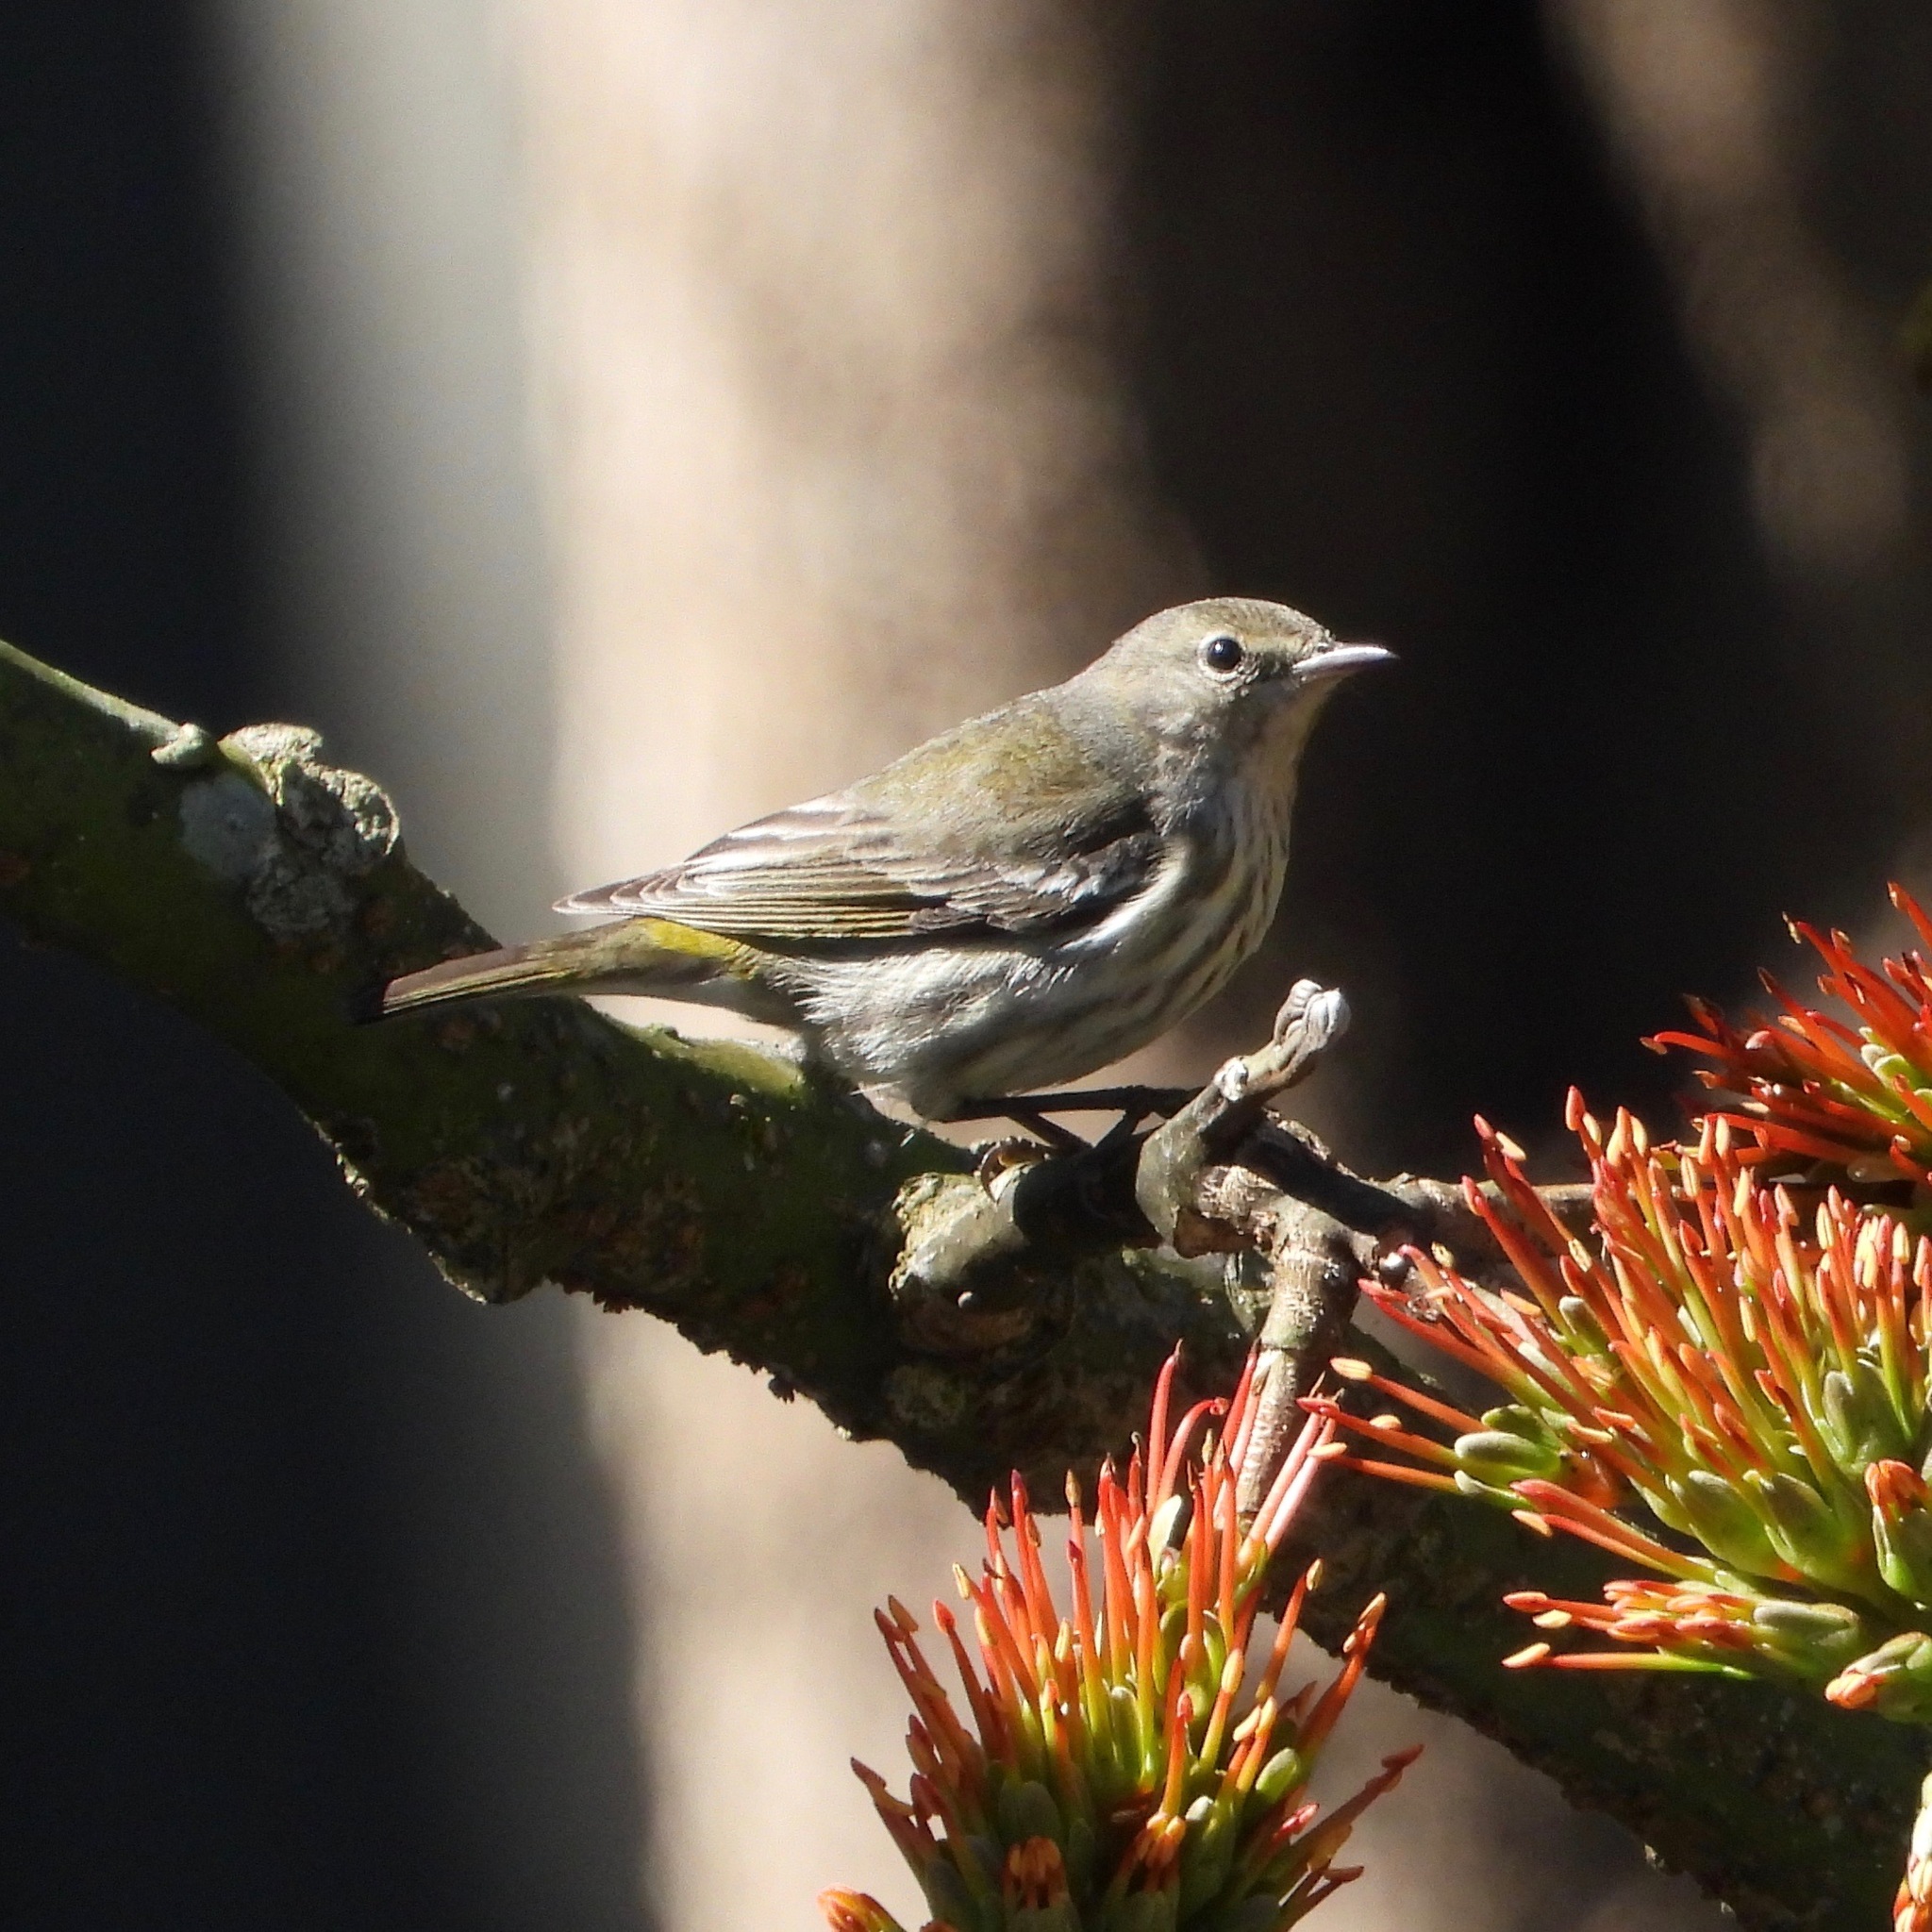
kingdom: Animalia
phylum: Chordata
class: Aves
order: Passeriformes
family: Parulidae
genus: Setophaga
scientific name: Setophaga tigrina
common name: Cape may warbler
